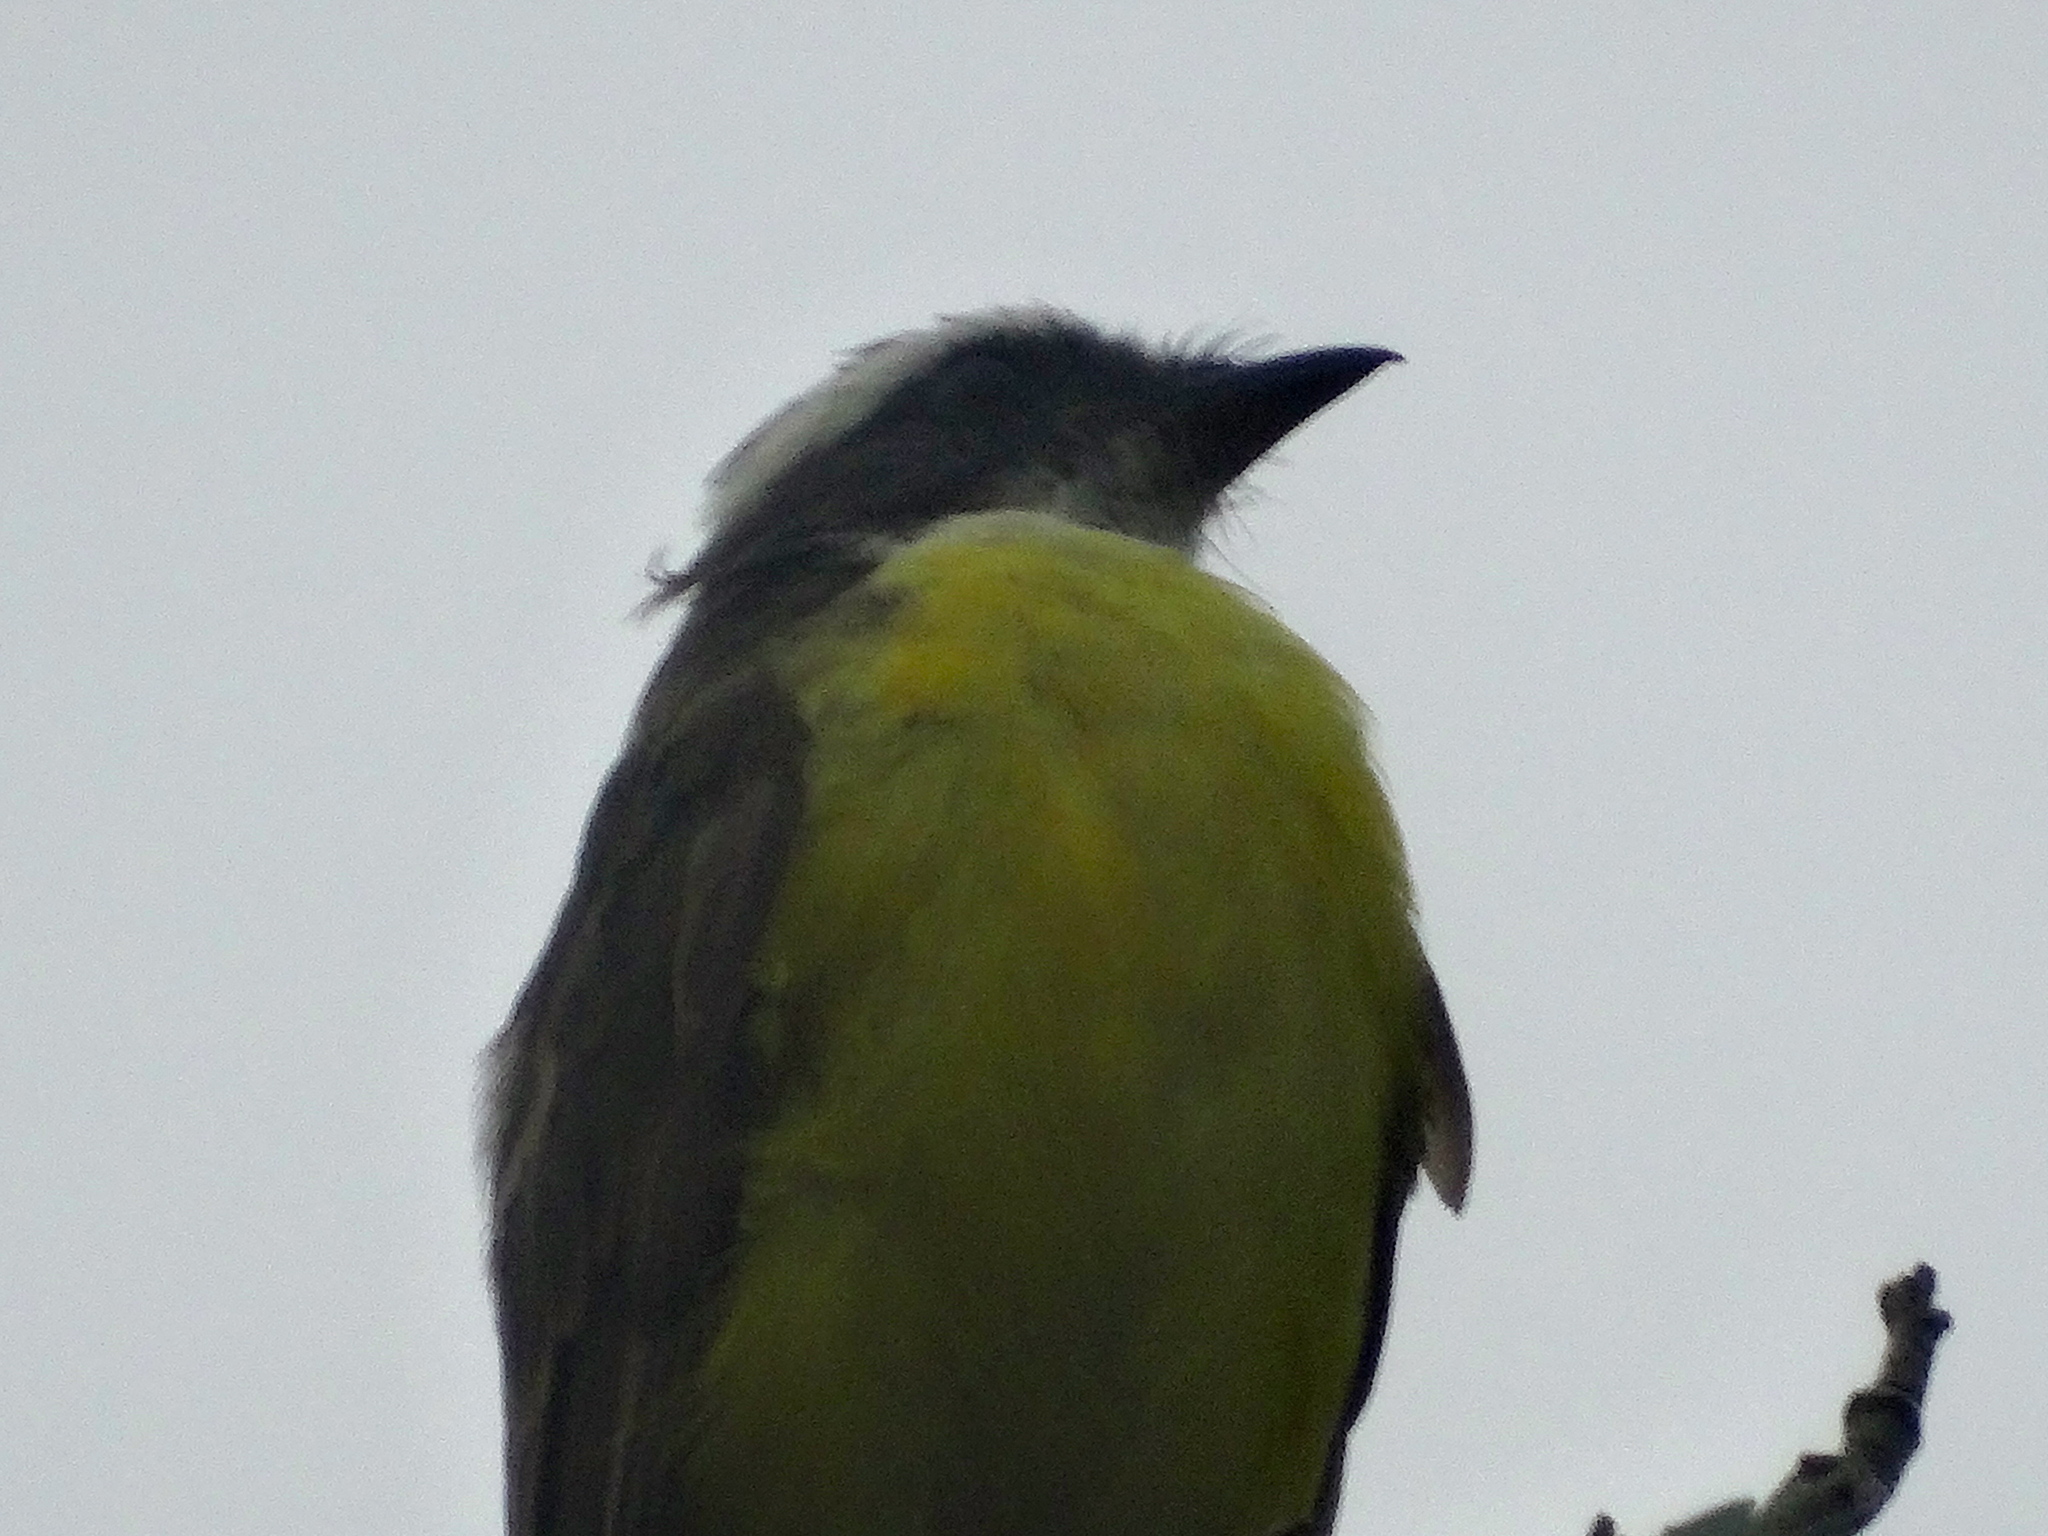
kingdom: Animalia
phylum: Chordata
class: Aves
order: Passeriformes
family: Tyrannidae
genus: Myiozetetes
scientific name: Myiozetetes similis
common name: Social flycatcher
